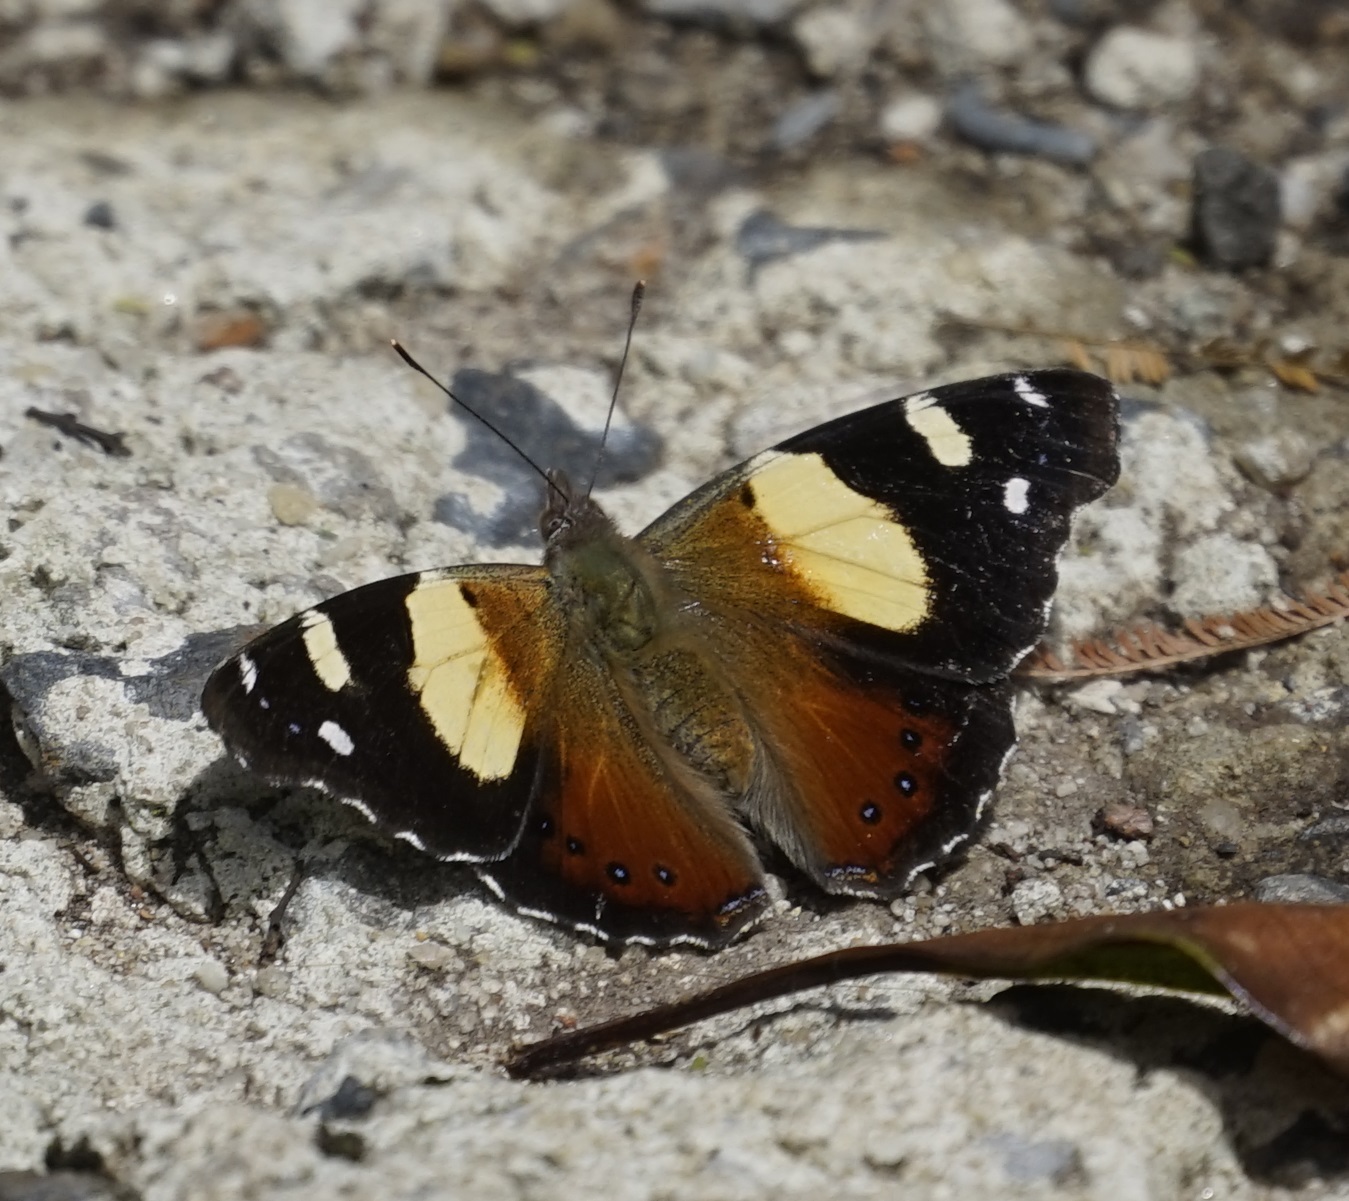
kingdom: Animalia
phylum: Arthropoda
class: Insecta
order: Lepidoptera
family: Nymphalidae
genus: Vanessa
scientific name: Vanessa itea
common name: Yellow admiral
